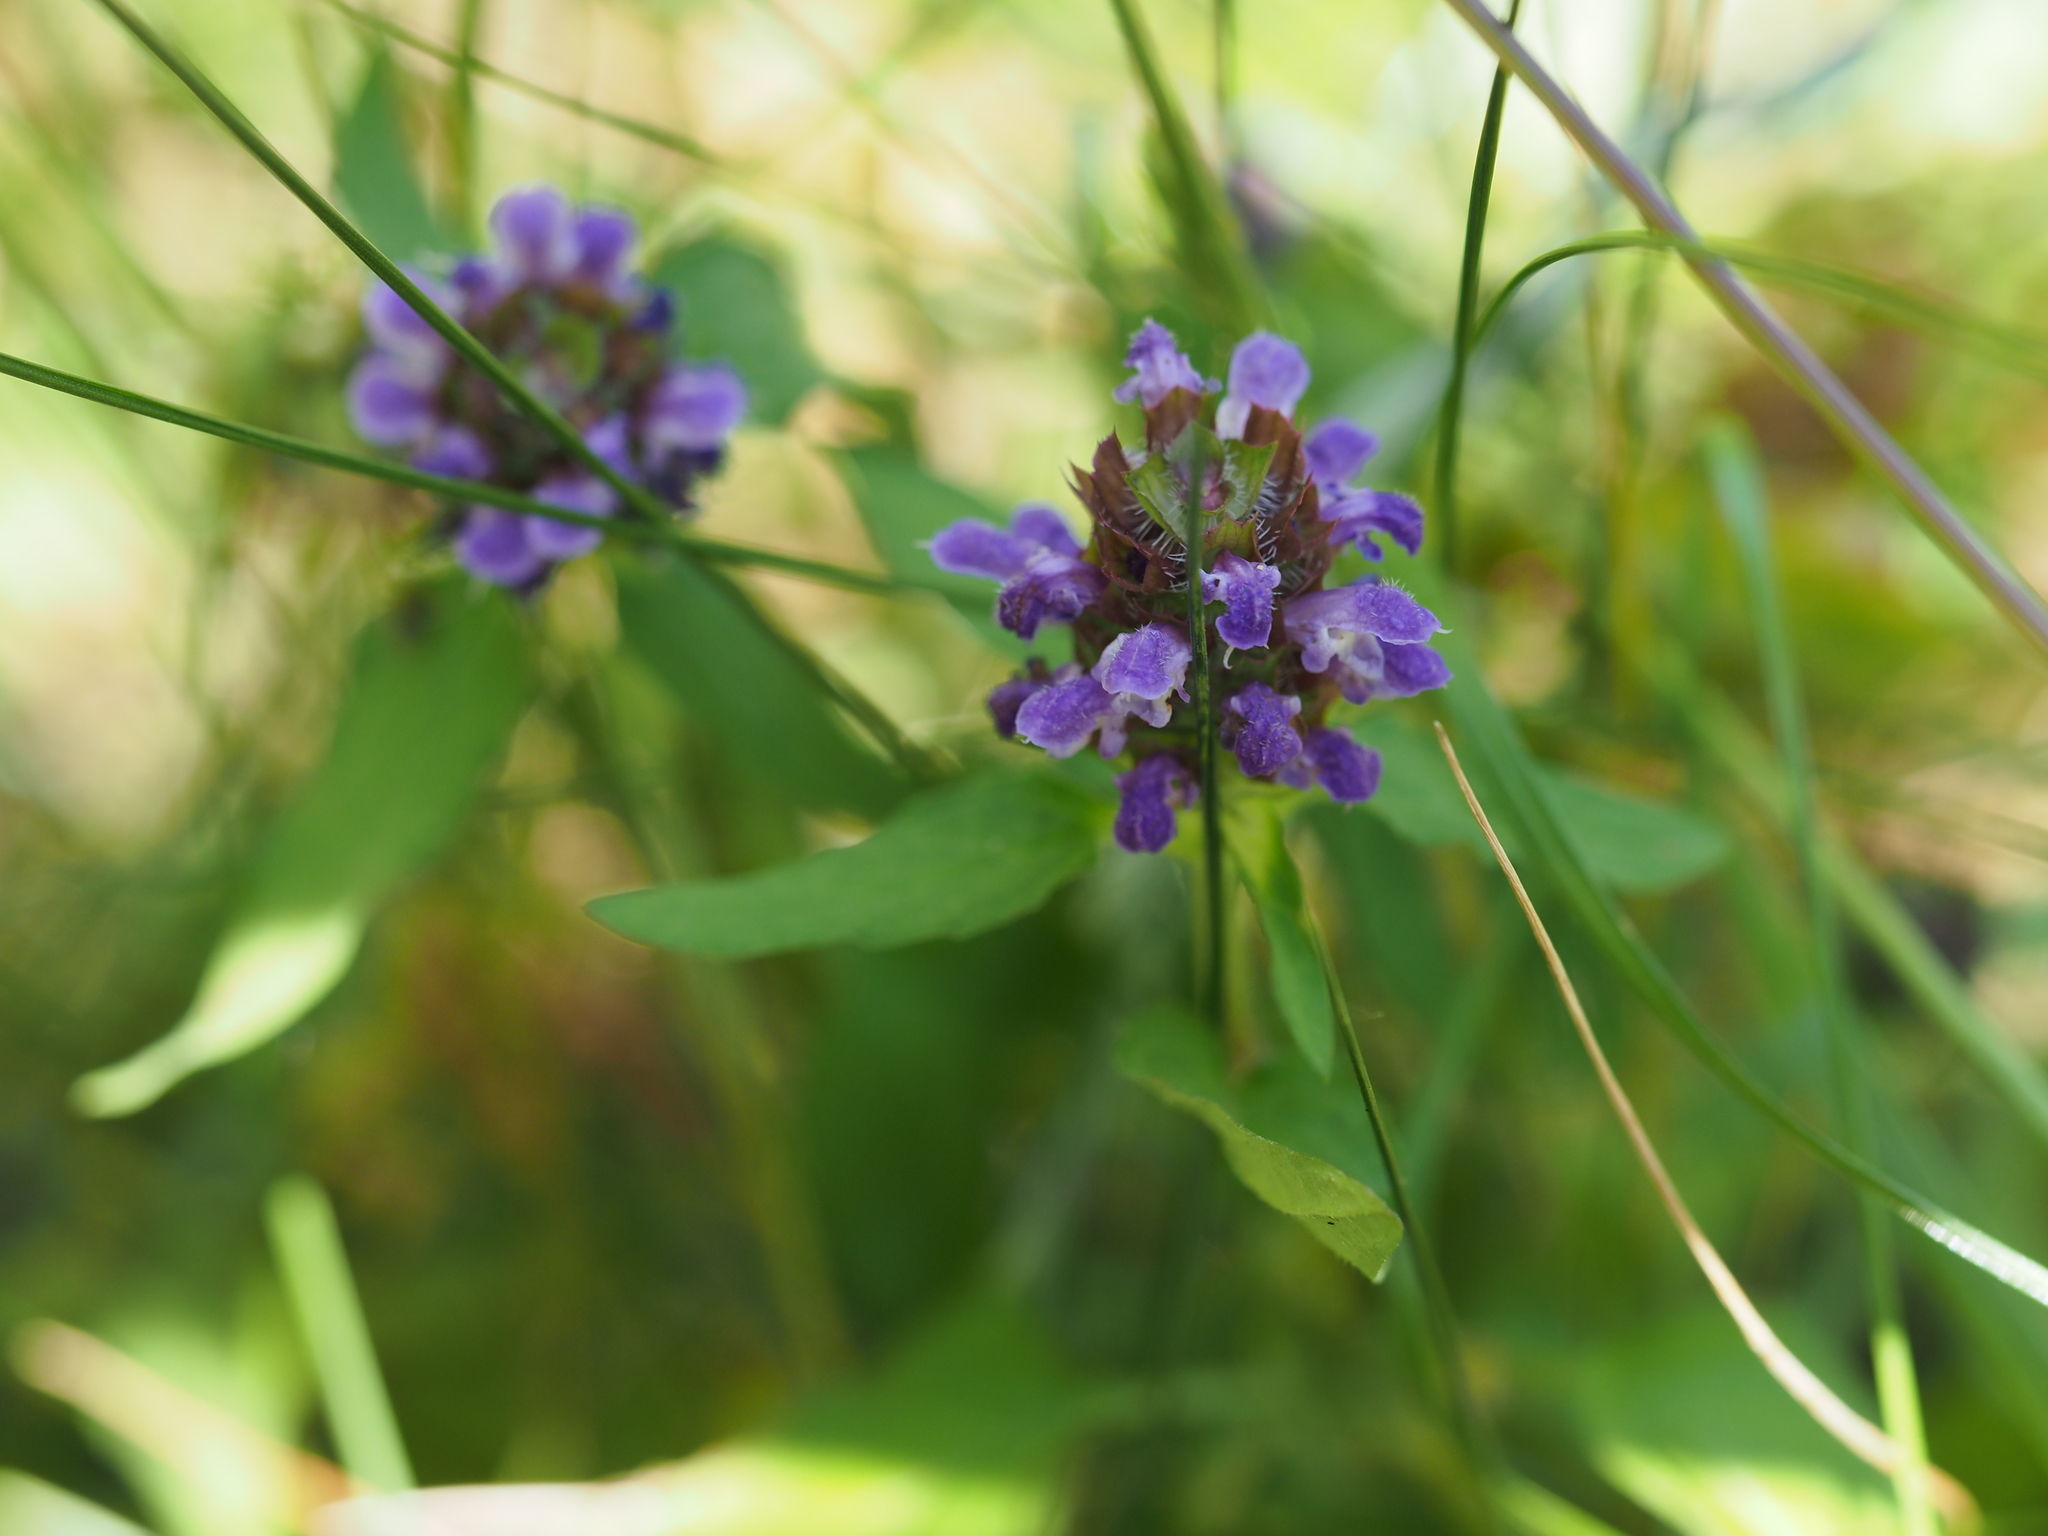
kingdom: Plantae
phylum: Tracheophyta
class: Magnoliopsida
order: Lamiales
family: Lamiaceae
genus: Prunella
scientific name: Prunella vulgaris
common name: Heal-all
